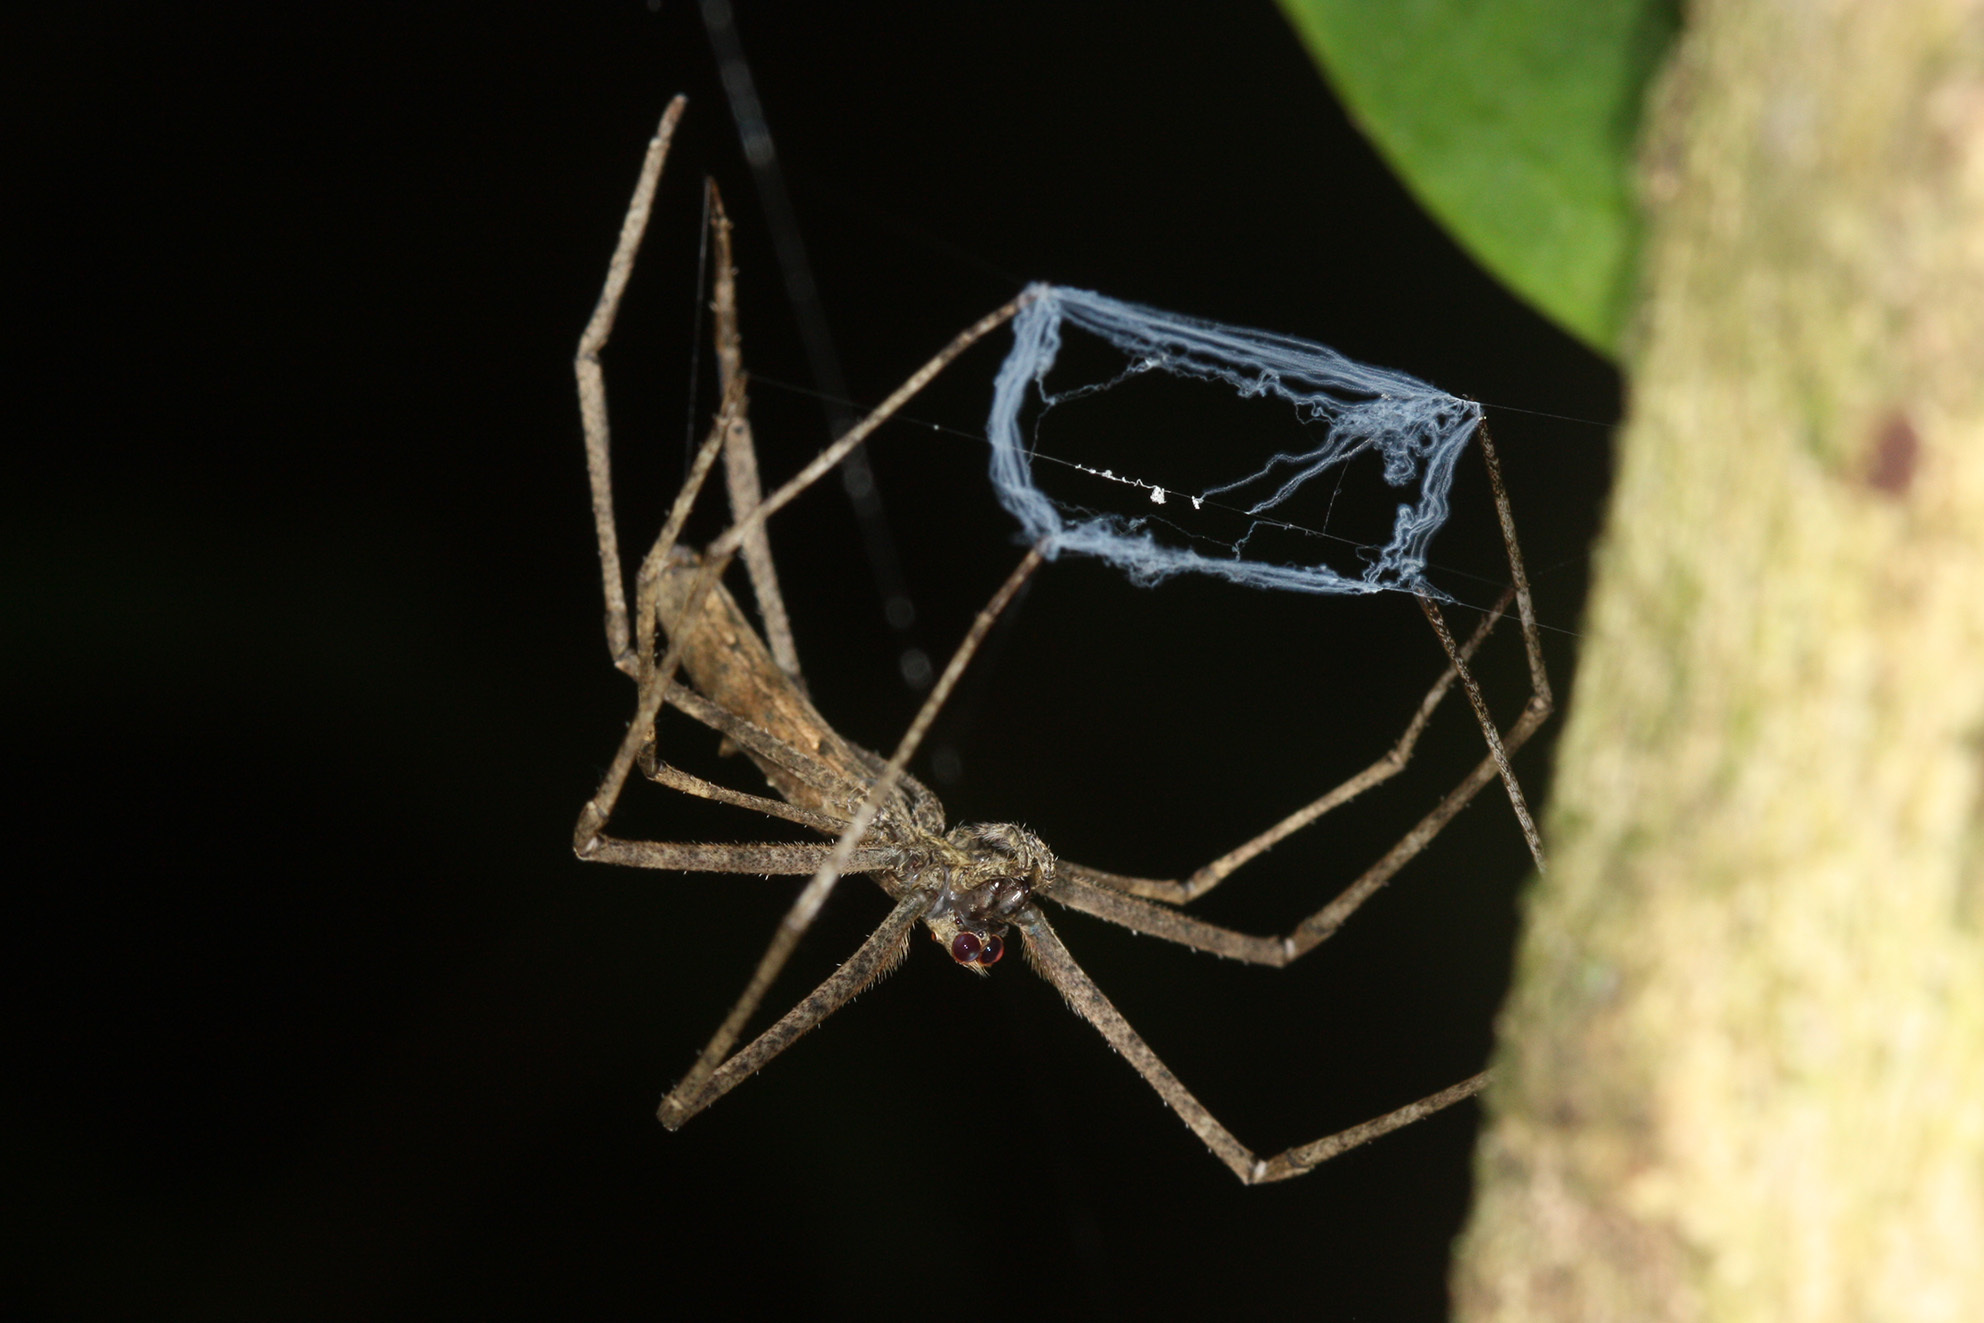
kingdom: Animalia
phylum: Arthropoda
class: Arachnida
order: Araneae
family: Deinopidae
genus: Deinopis
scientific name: Deinopis amica
